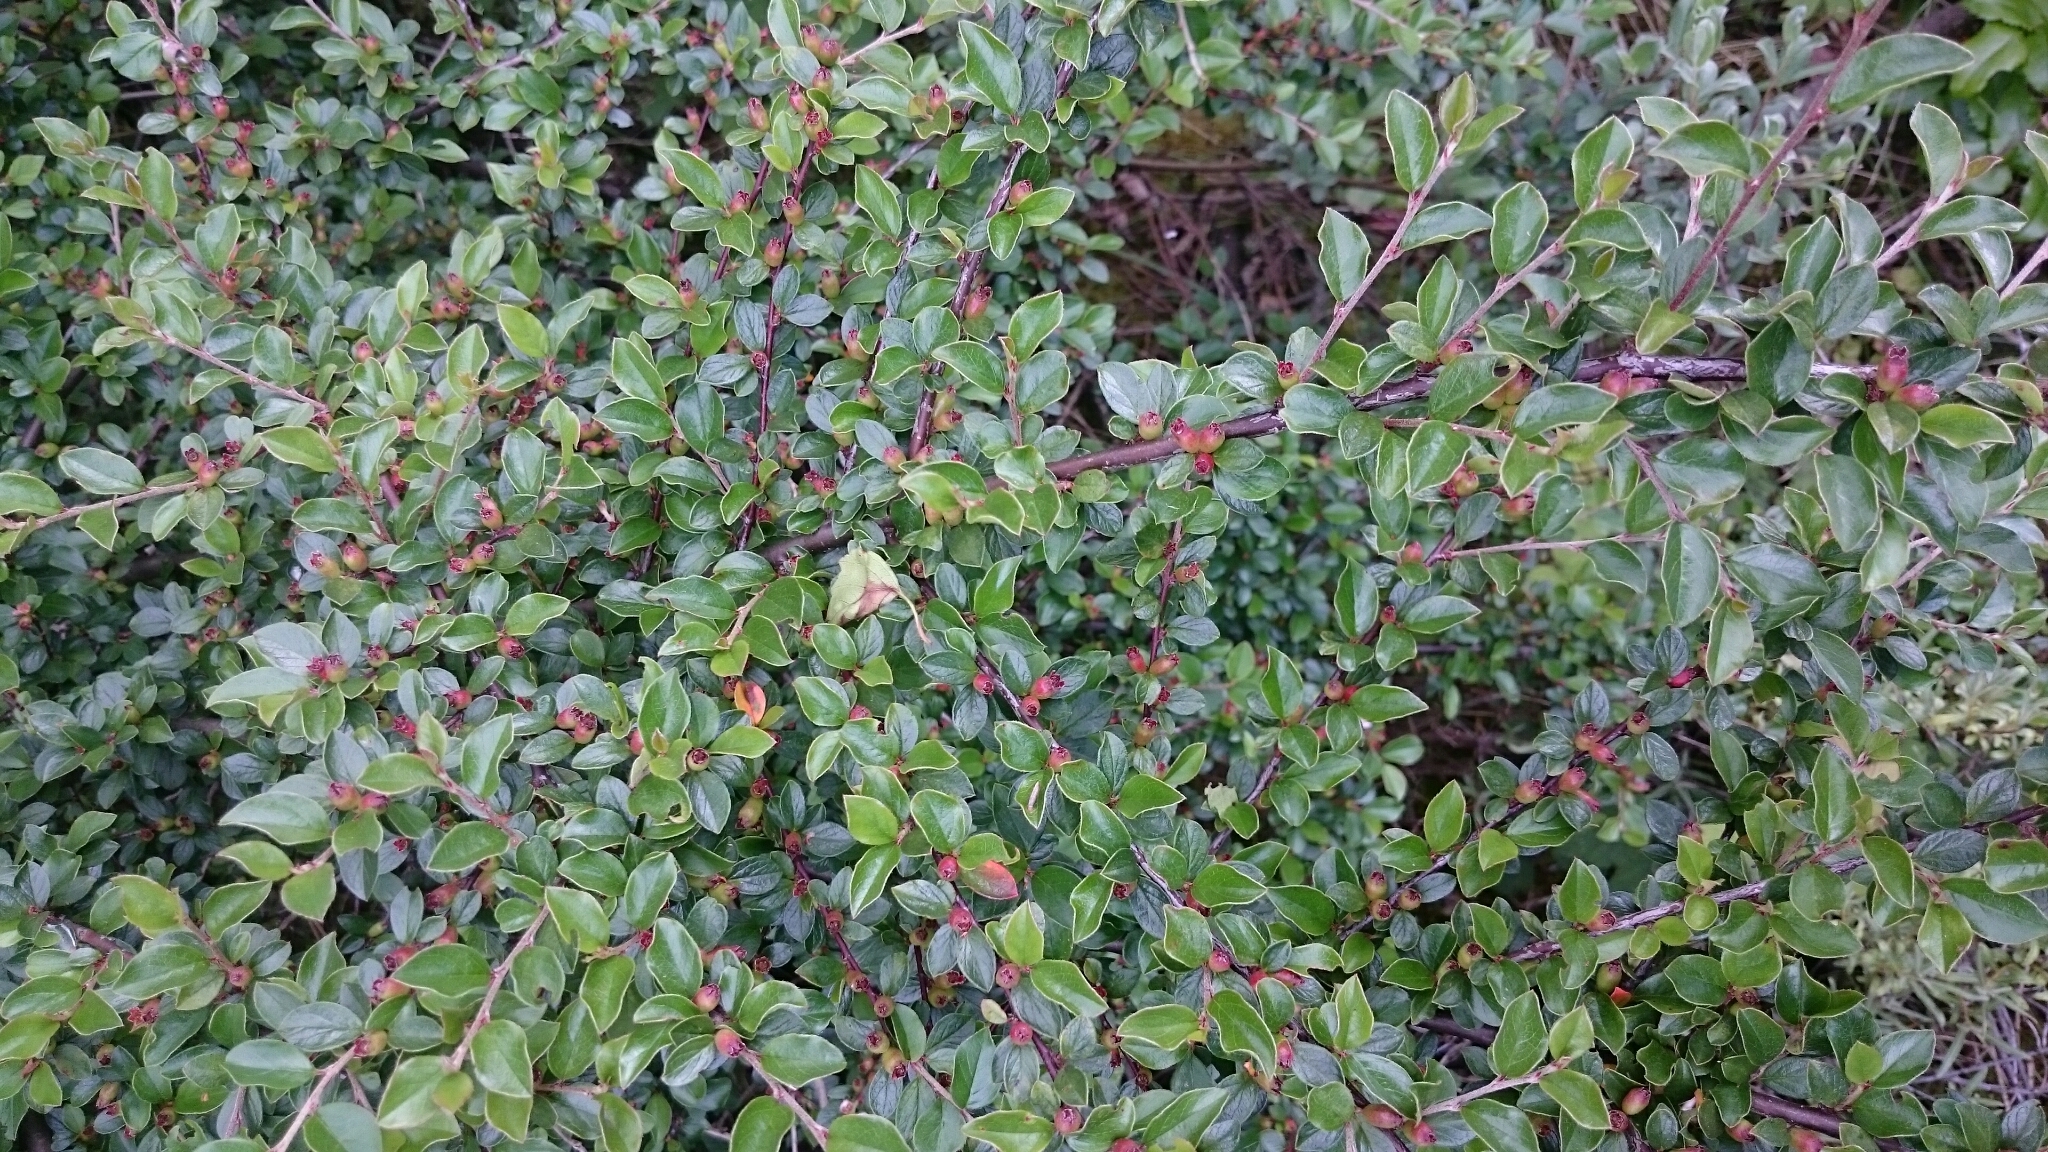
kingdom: Plantae
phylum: Tracheophyta
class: Magnoliopsida
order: Rosales
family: Rosaceae
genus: Cotoneaster
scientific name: Cotoneaster divaricatus
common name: Spreading cotoneaster
